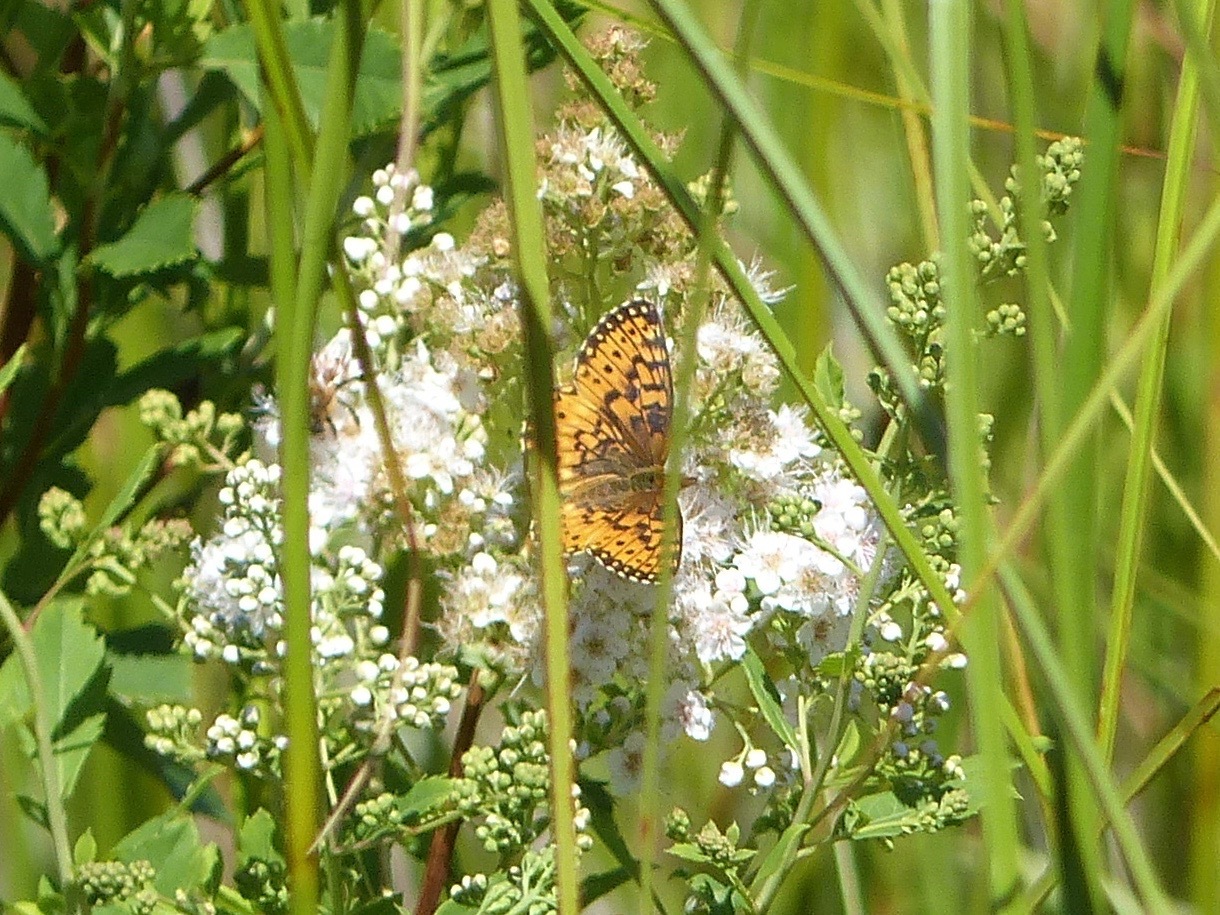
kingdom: Animalia
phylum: Arthropoda
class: Insecta
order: Lepidoptera
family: Nymphalidae
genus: Boloria
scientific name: Boloria
